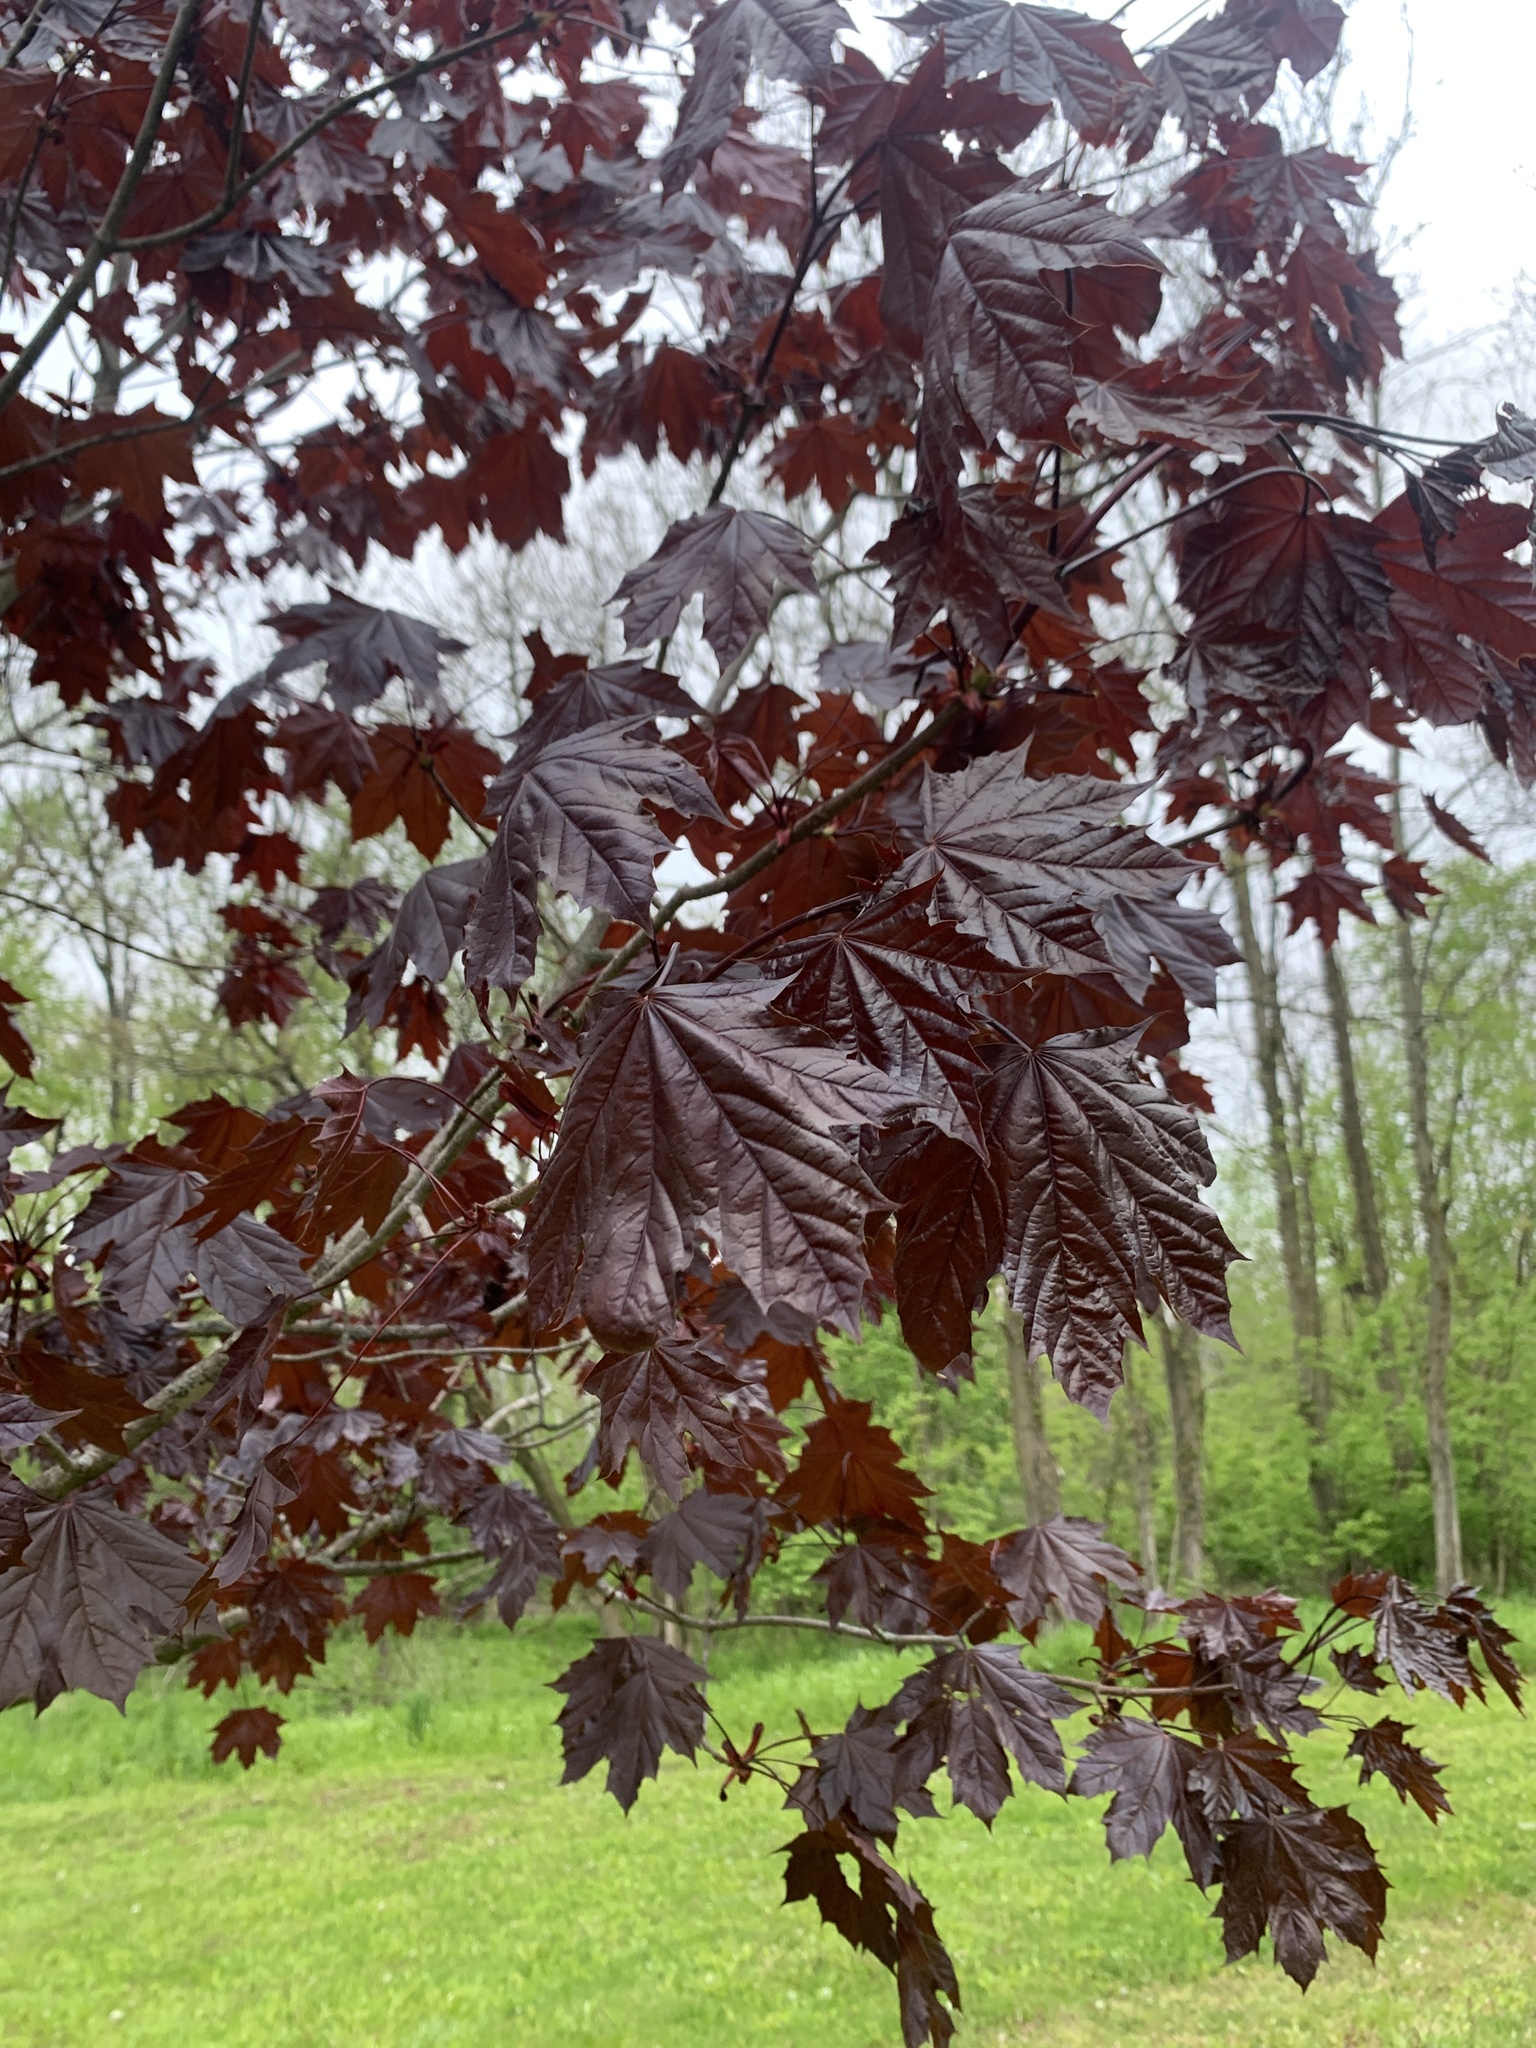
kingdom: Plantae
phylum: Tracheophyta
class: Magnoliopsida
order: Sapindales
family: Sapindaceae
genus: Acer
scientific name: Acer platanoides
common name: Norway maple
